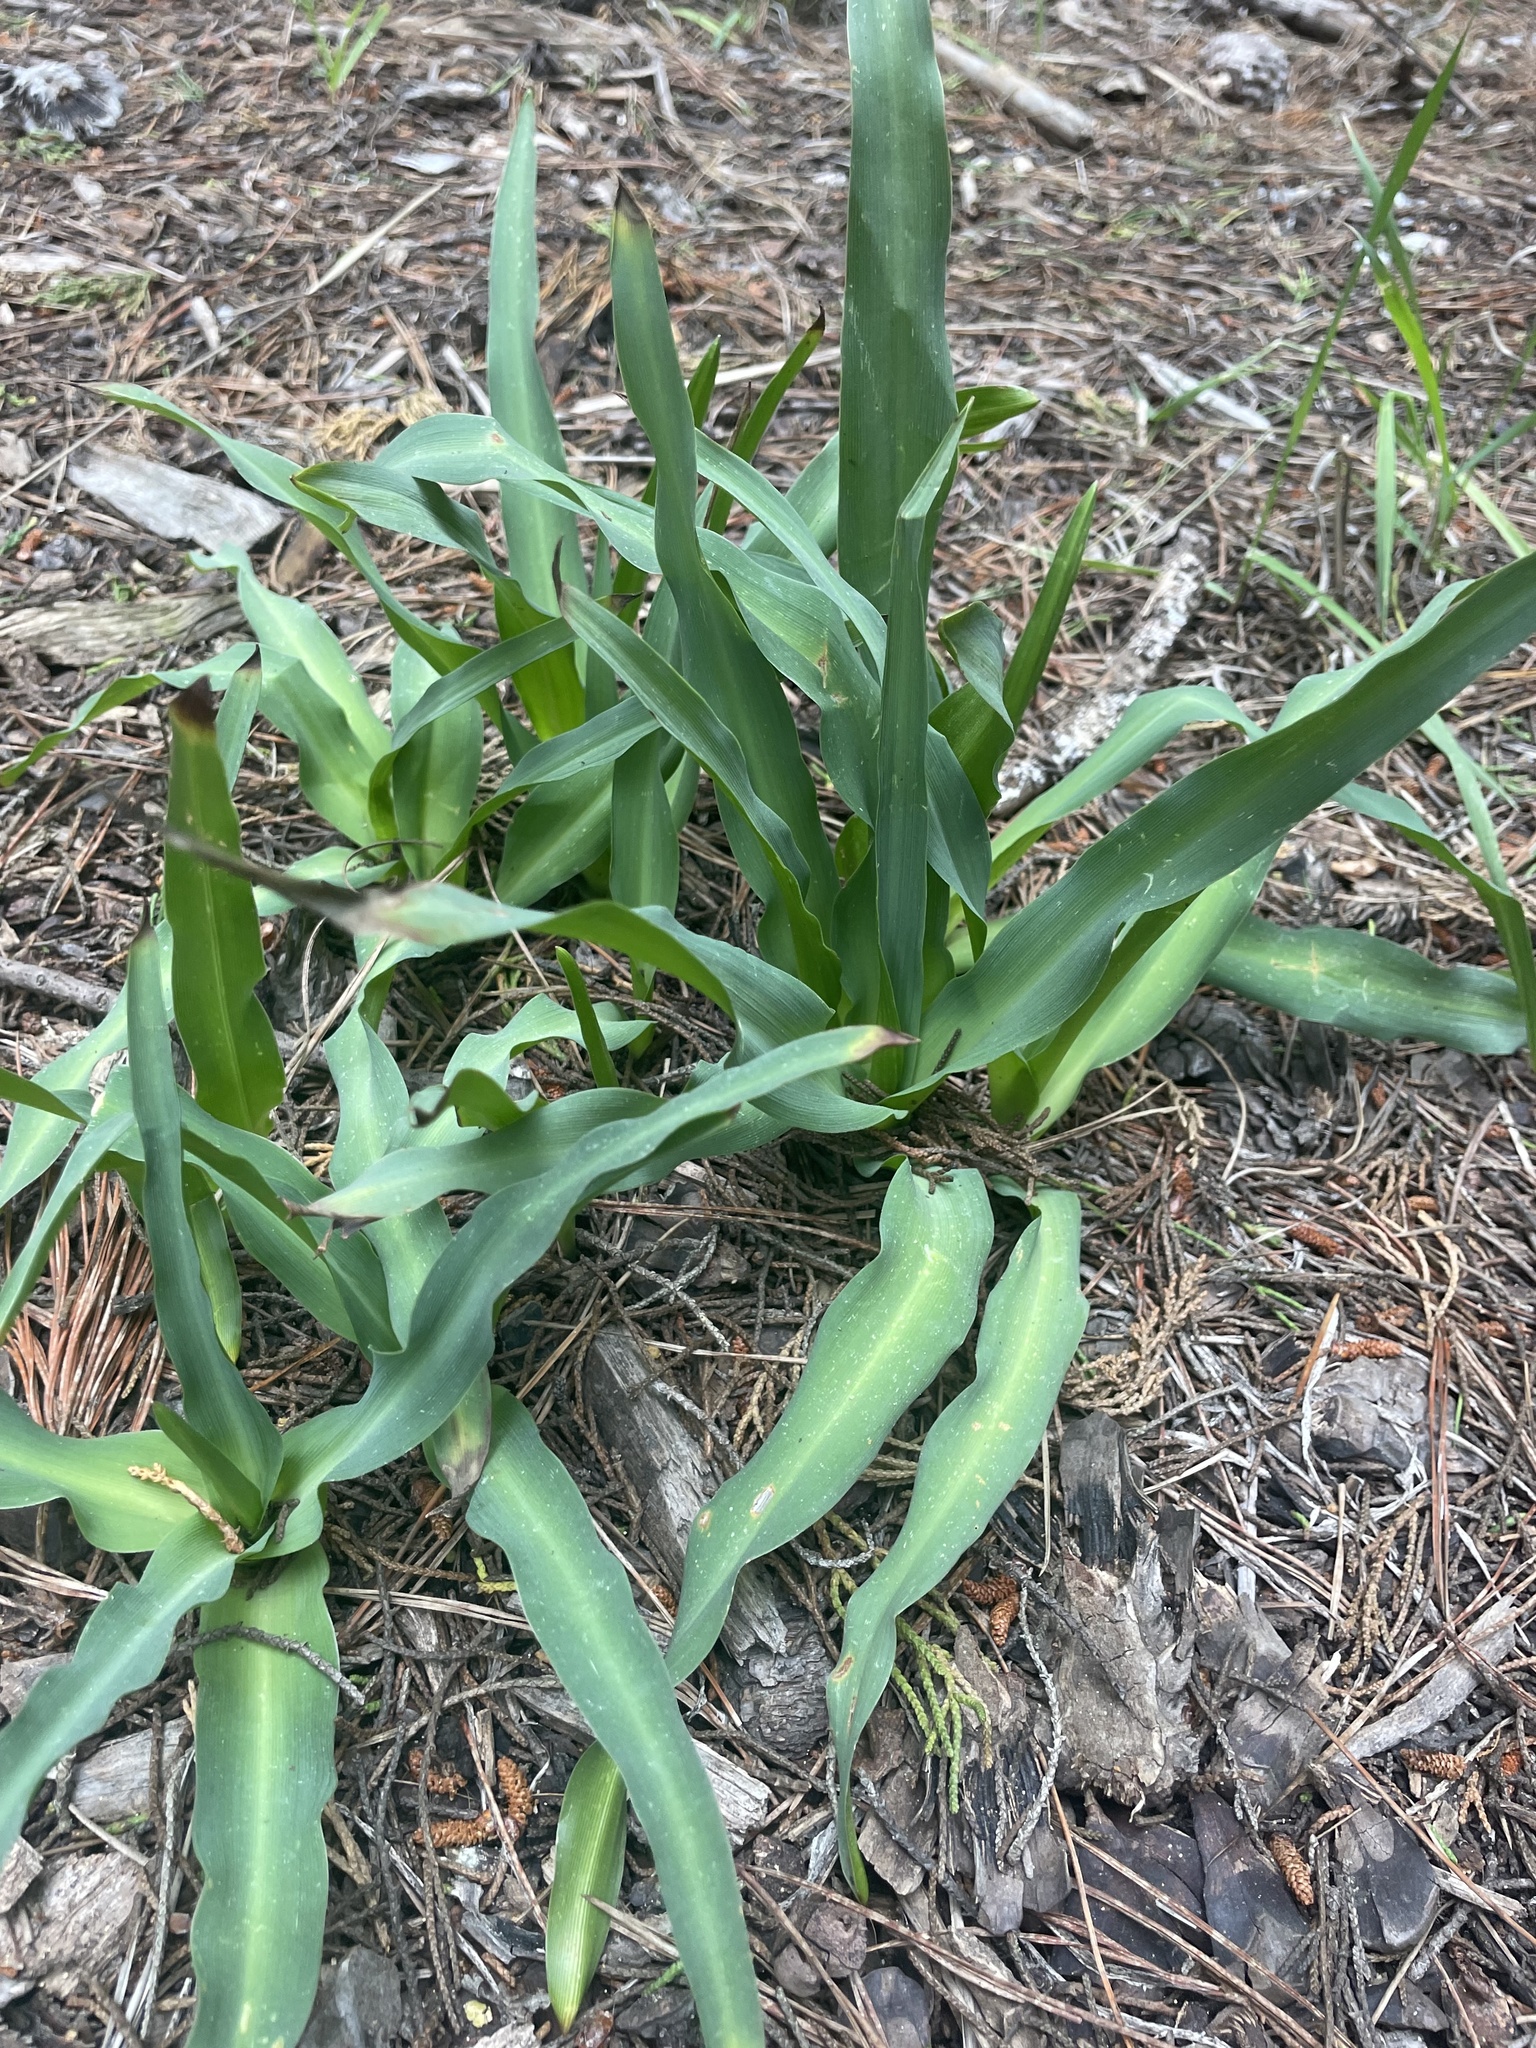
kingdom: Plantae
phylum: Tracheophyta
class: Liliopsida
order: Asparagales
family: Asparagaceae
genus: Chlorogalum
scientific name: Chlorogalum pomeridianum
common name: Amole
